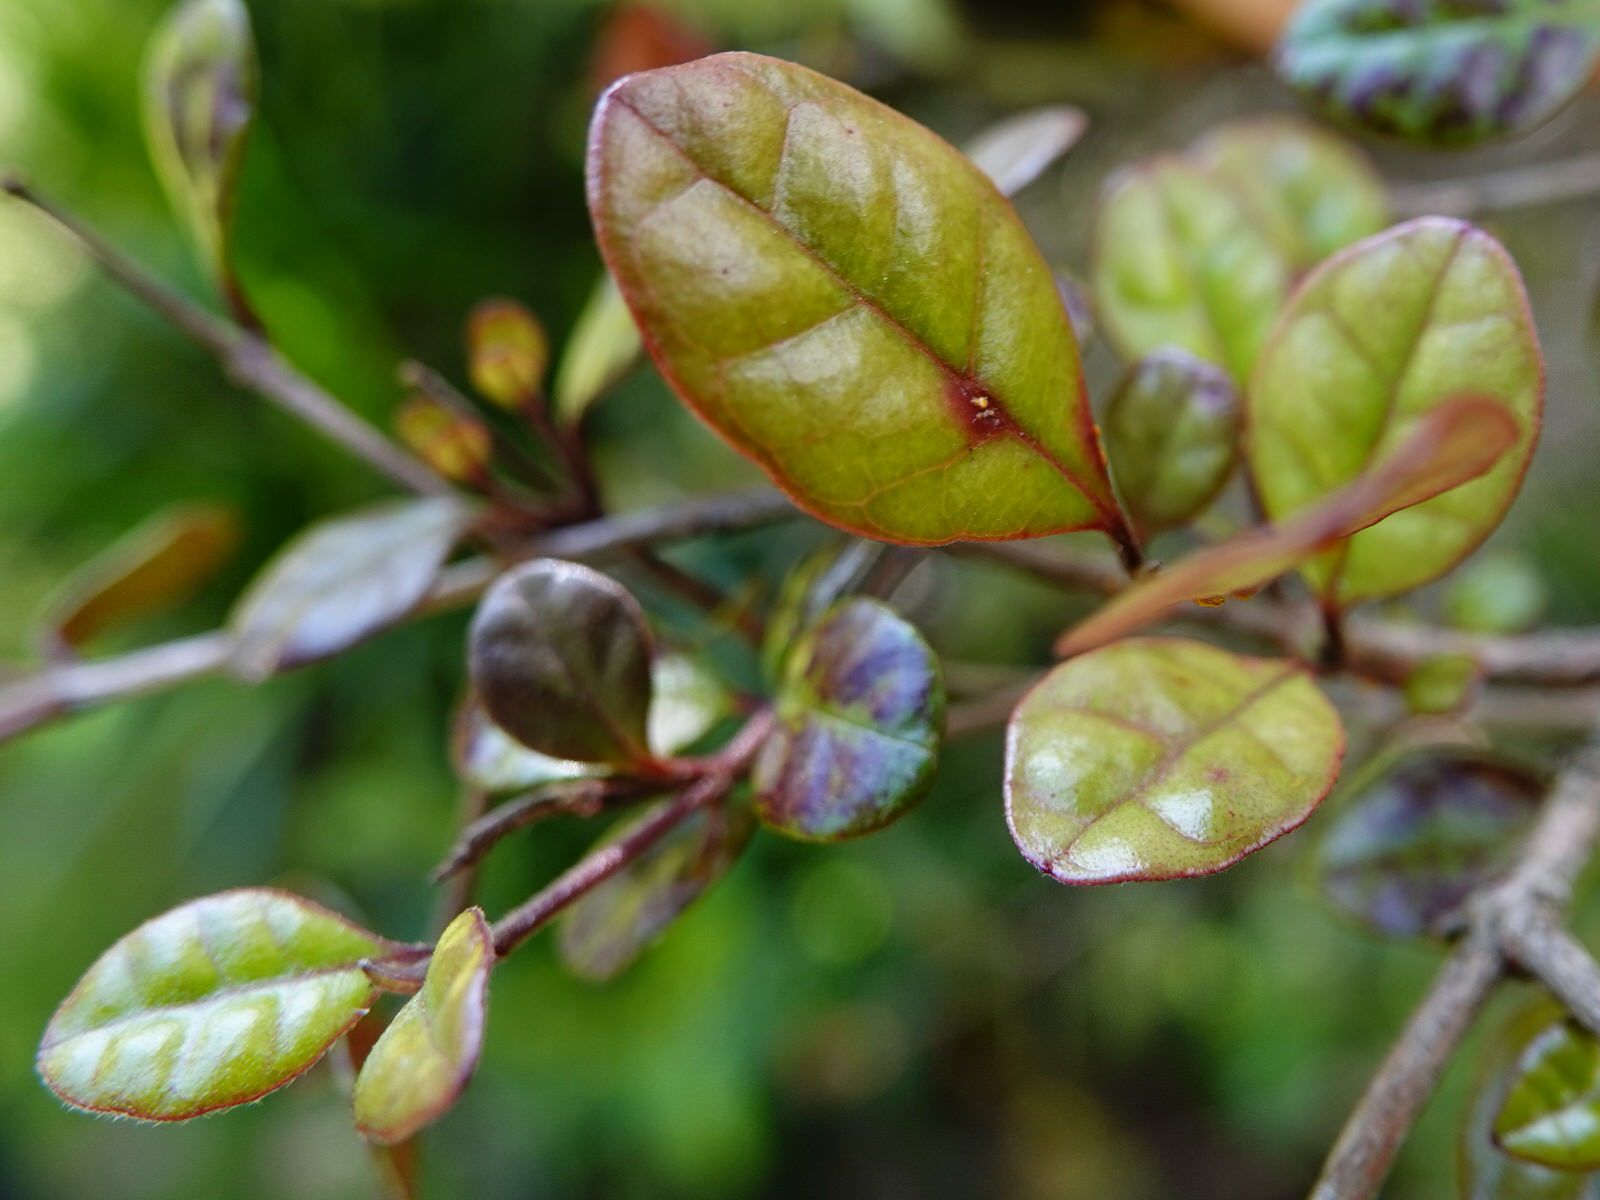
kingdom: Fungi
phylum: Basidiomycota
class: Pucciniomycetes
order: Pucciniales
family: Sphaerophragmiaceae
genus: Austropuccinia
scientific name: Austropuccinia psidii
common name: Myrtle rust
